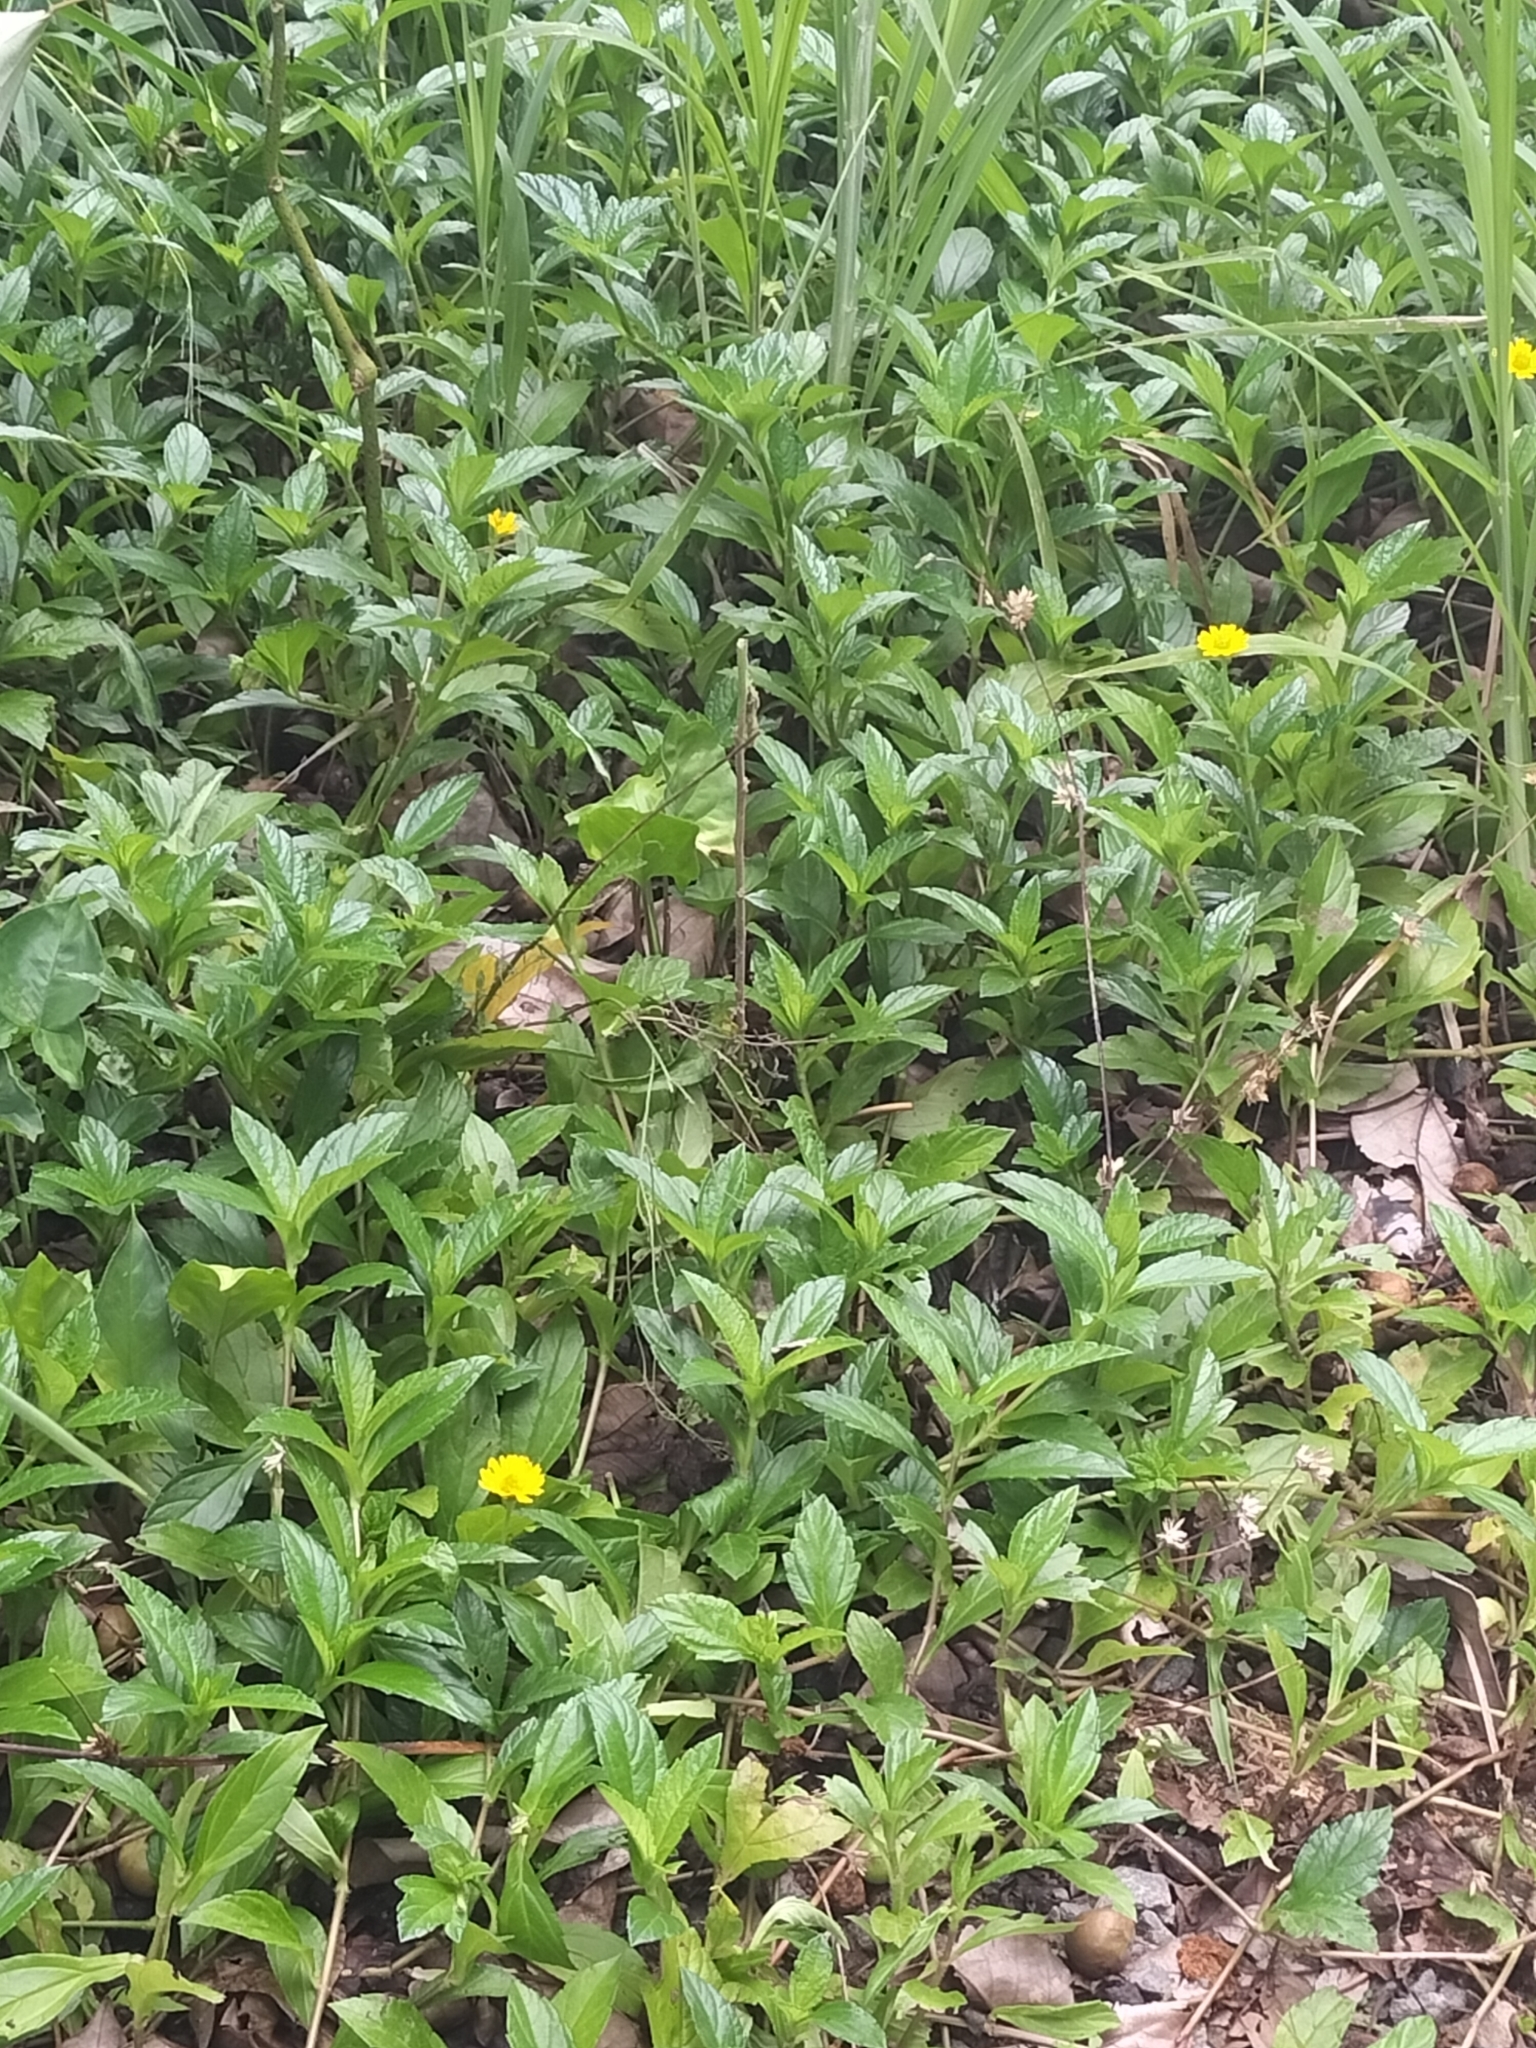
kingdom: Plantae
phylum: Tracheophyta
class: Magnoliopsida
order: Asterales
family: Asteraceae
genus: Sphagneticola
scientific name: Sphagneticola trilobata
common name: Bay biscayne creeping-oxeye
